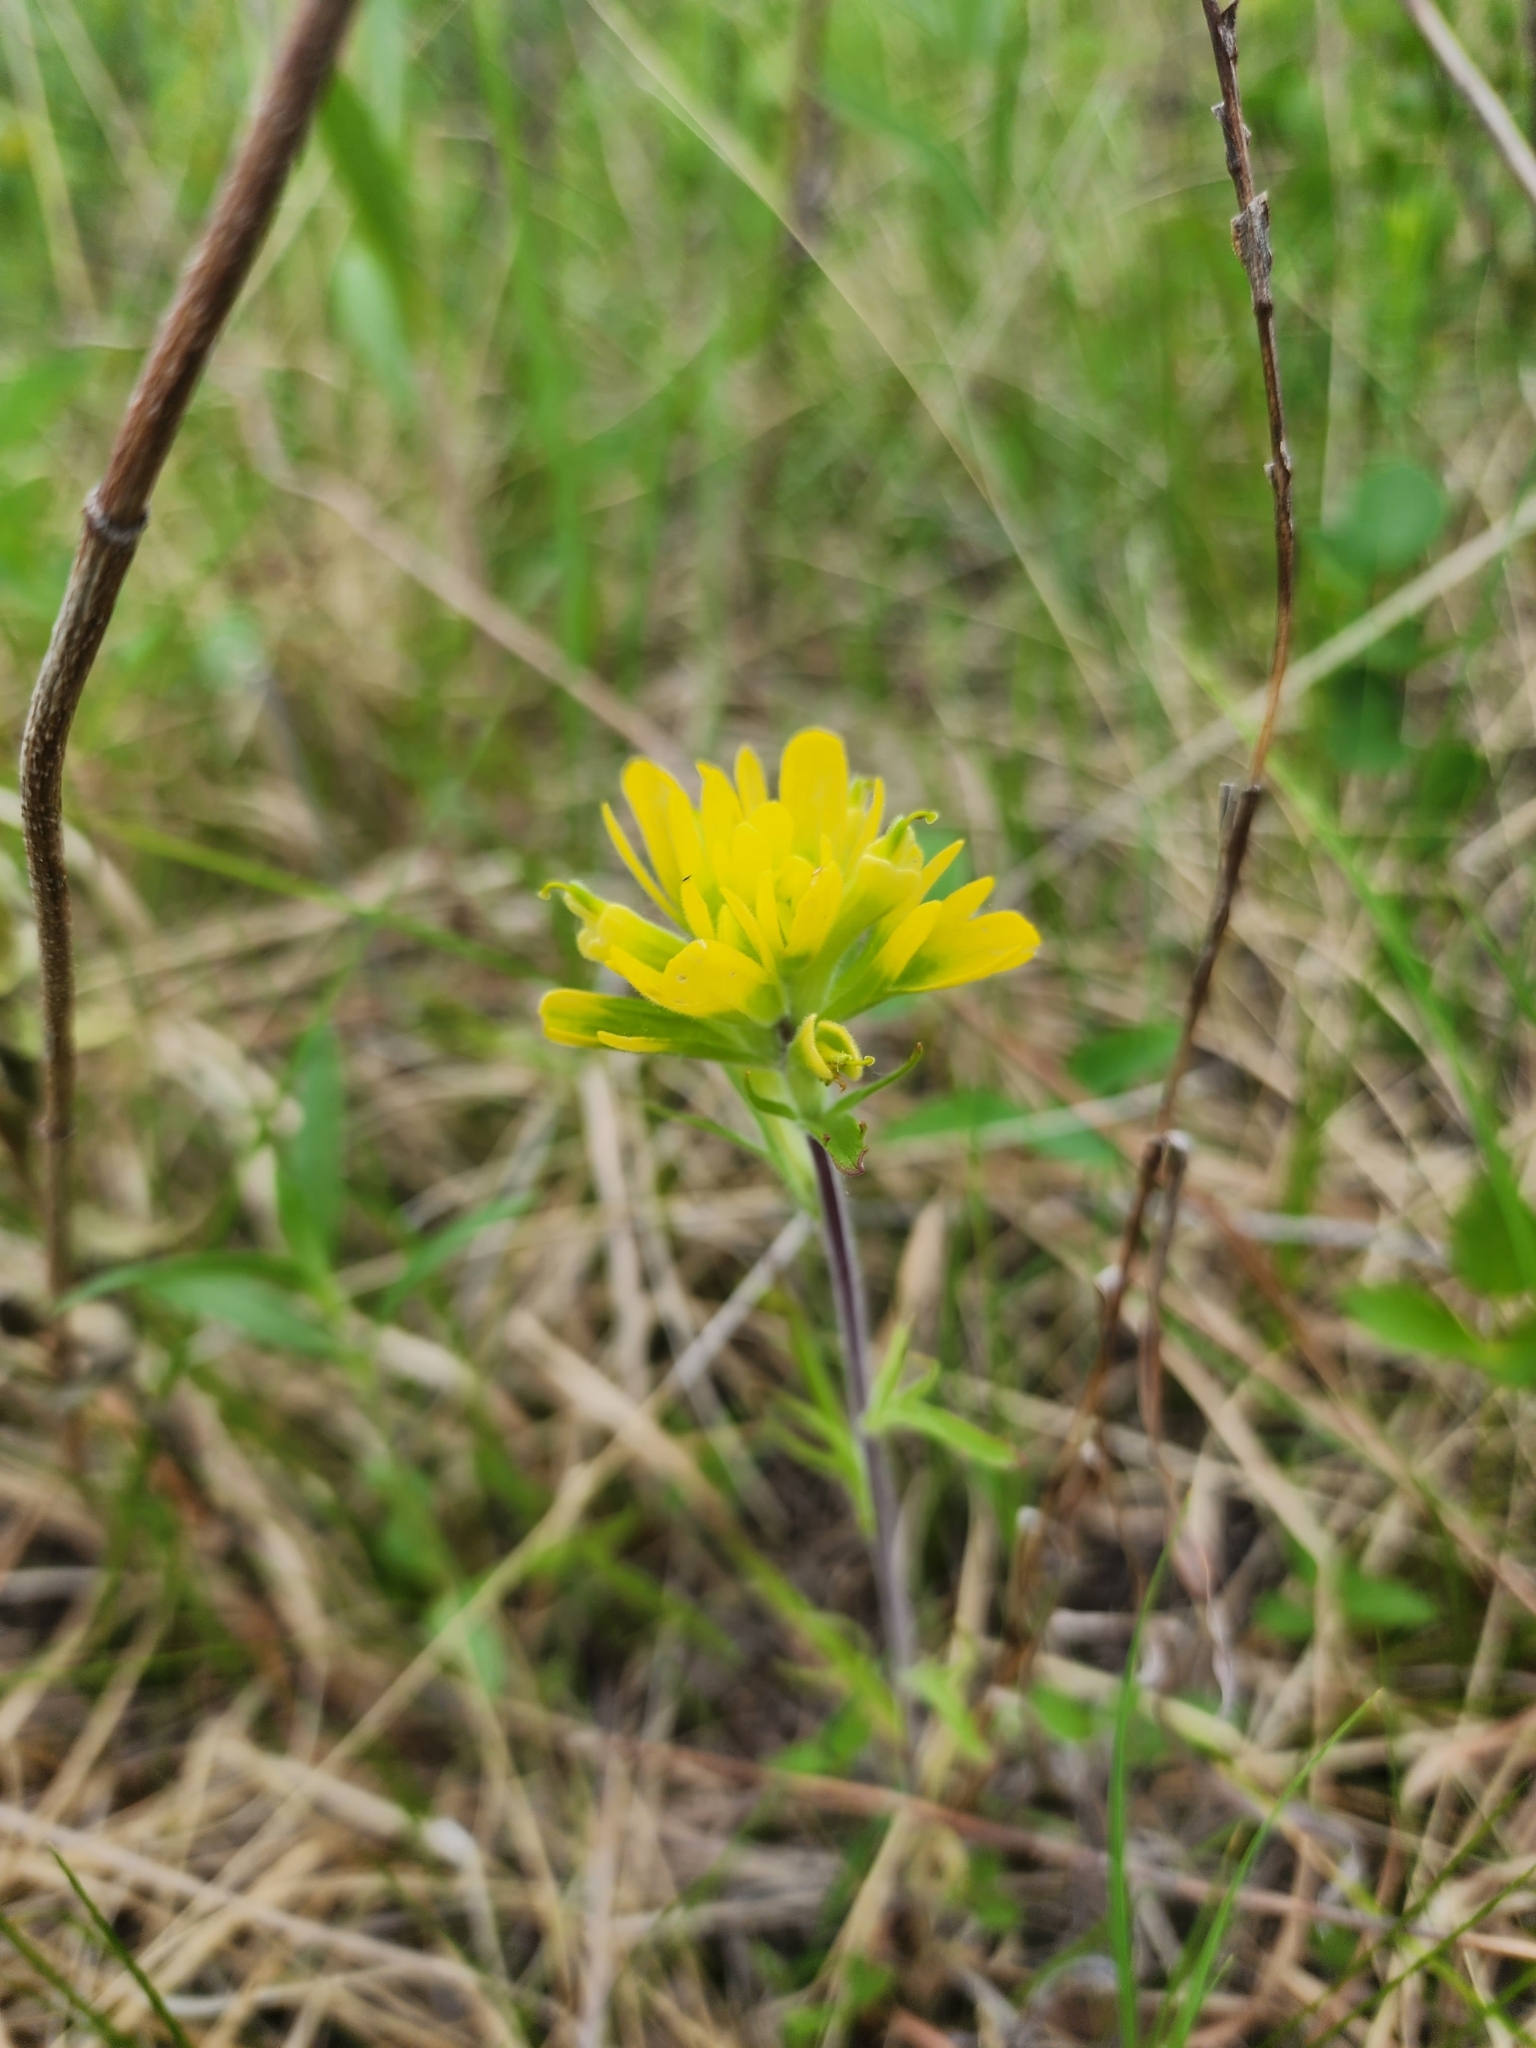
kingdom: Plantae
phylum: Tracheophyta
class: Magnoliopsida
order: Lamiales
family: Orobanchaceae
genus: Castilleja
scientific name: Castilleja coccinea
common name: Scarlet paintbrush
